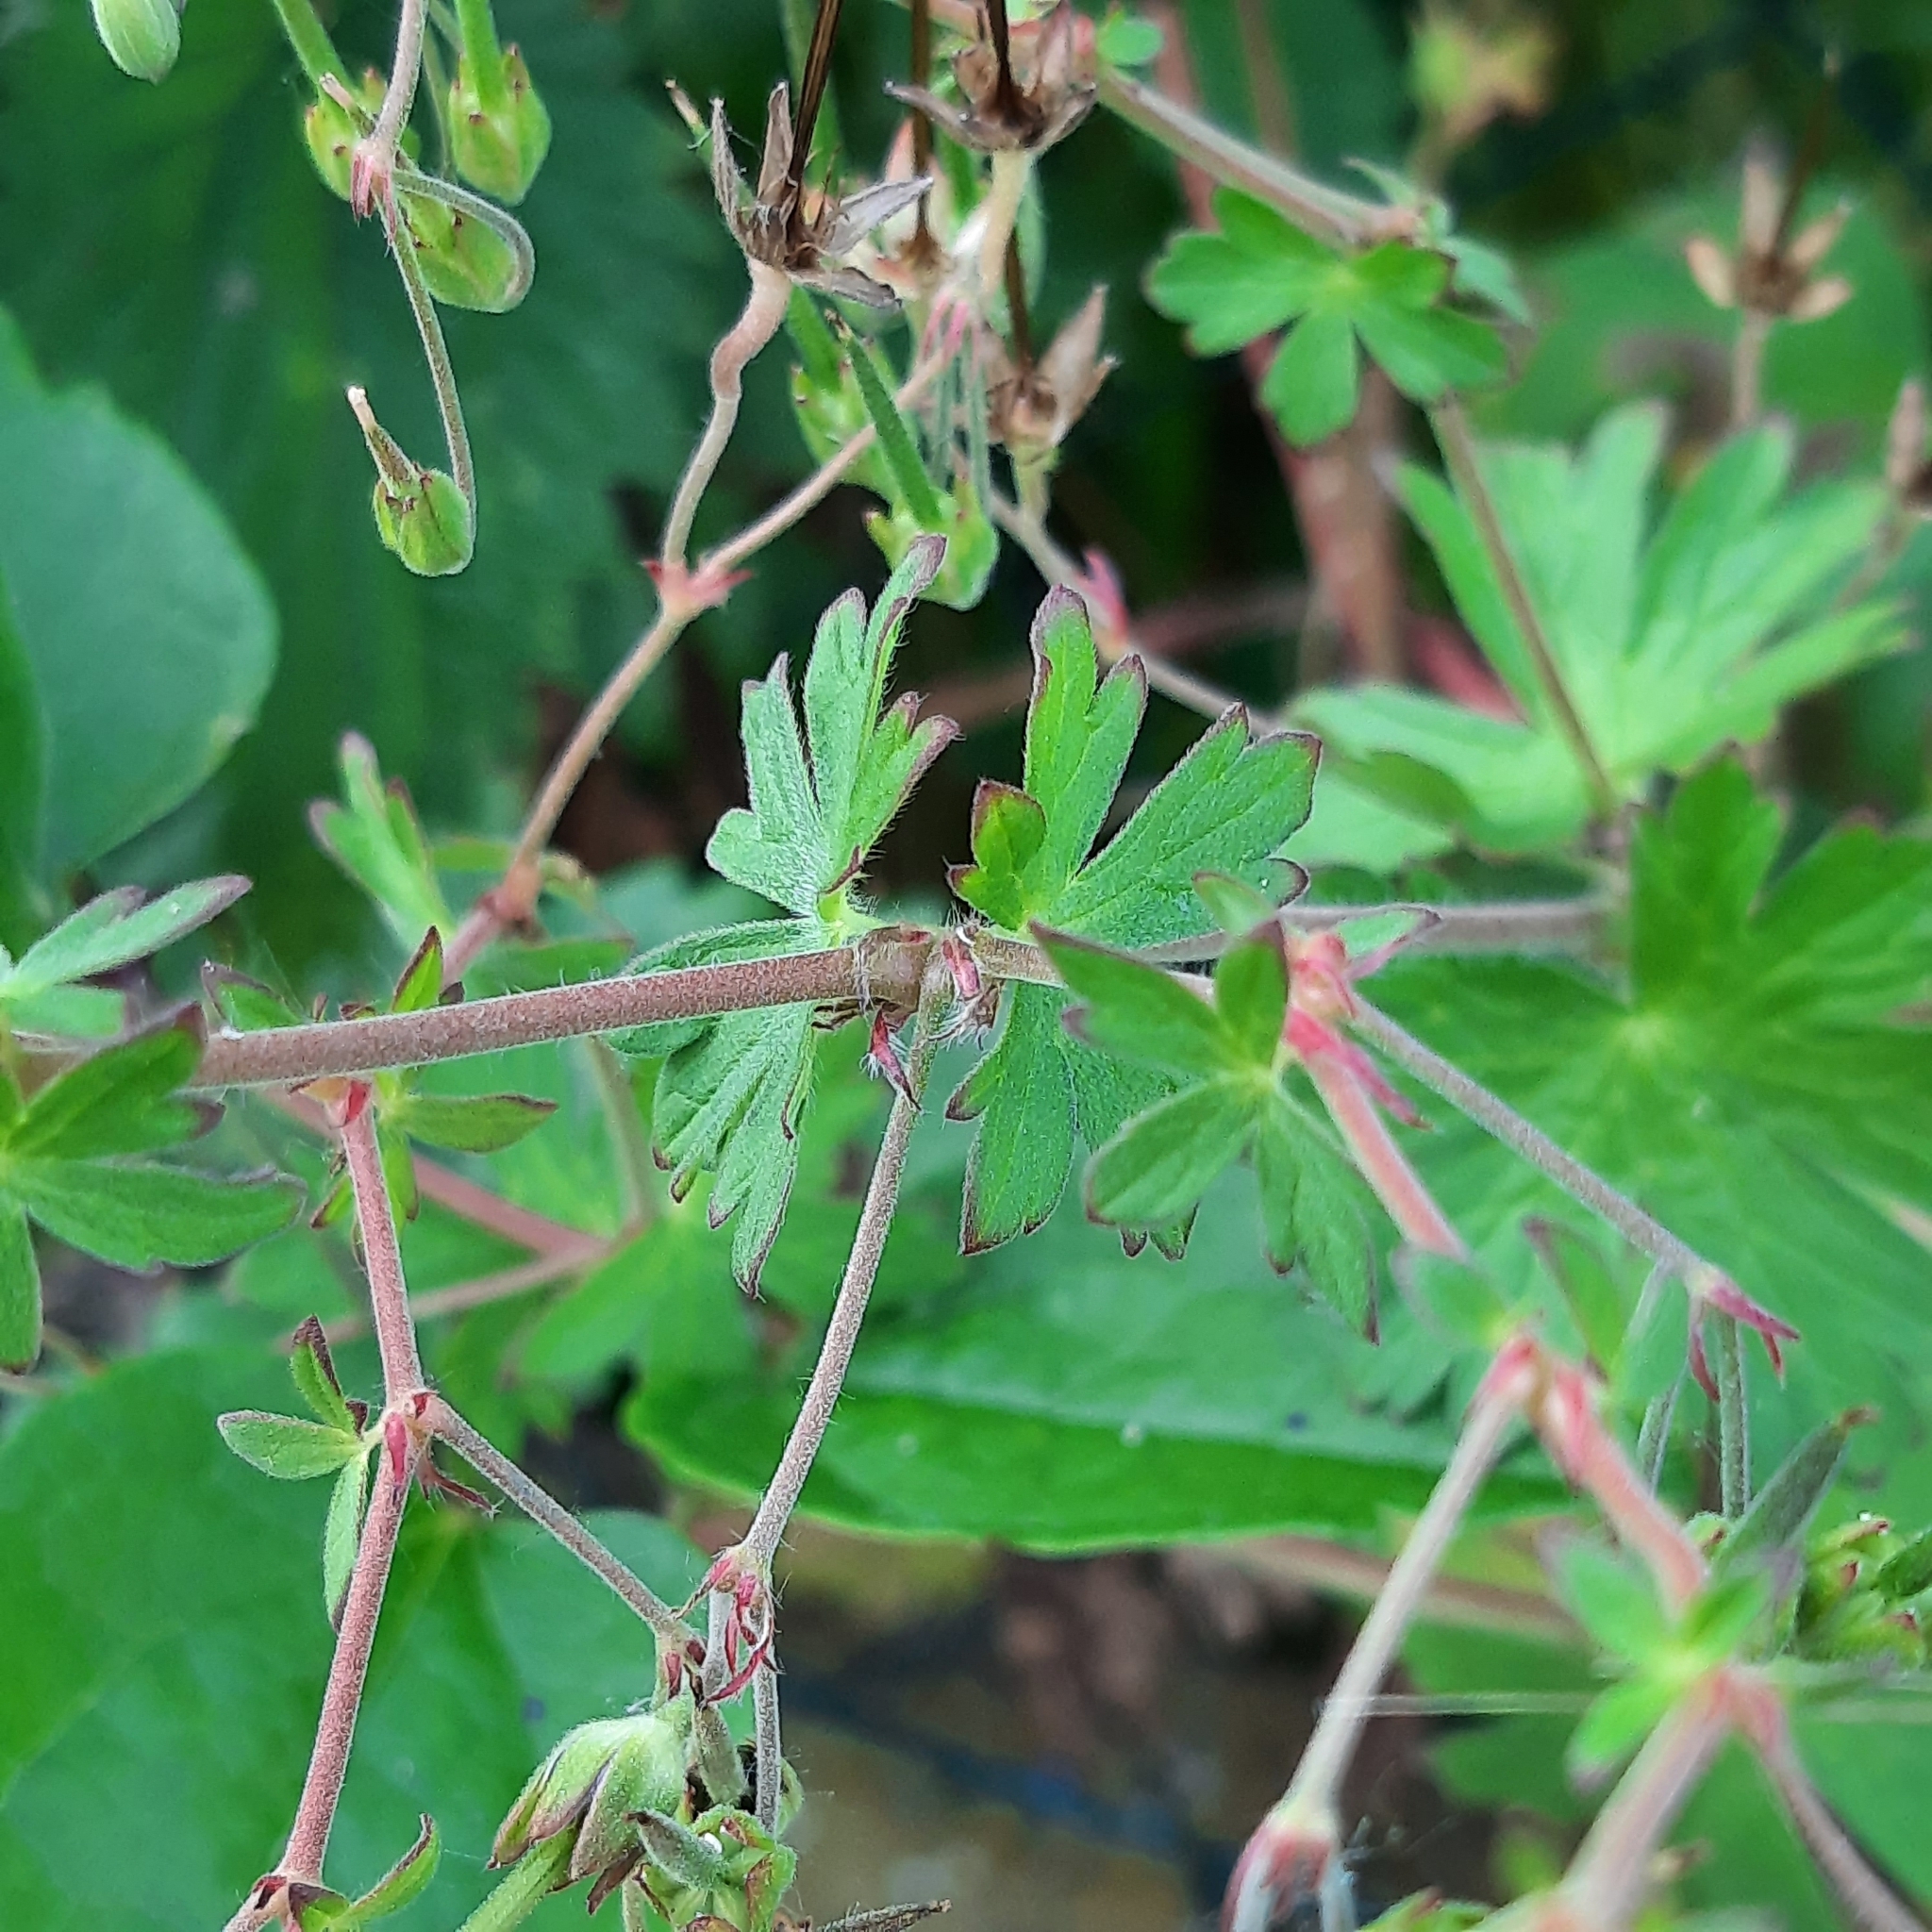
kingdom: Plantae
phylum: Tracheophyta
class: Magnoliopsida
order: Geraniales
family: Geraniaceae
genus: Geranium
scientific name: Geranium pyrenaicum
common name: Hedgerow crane's-bill
